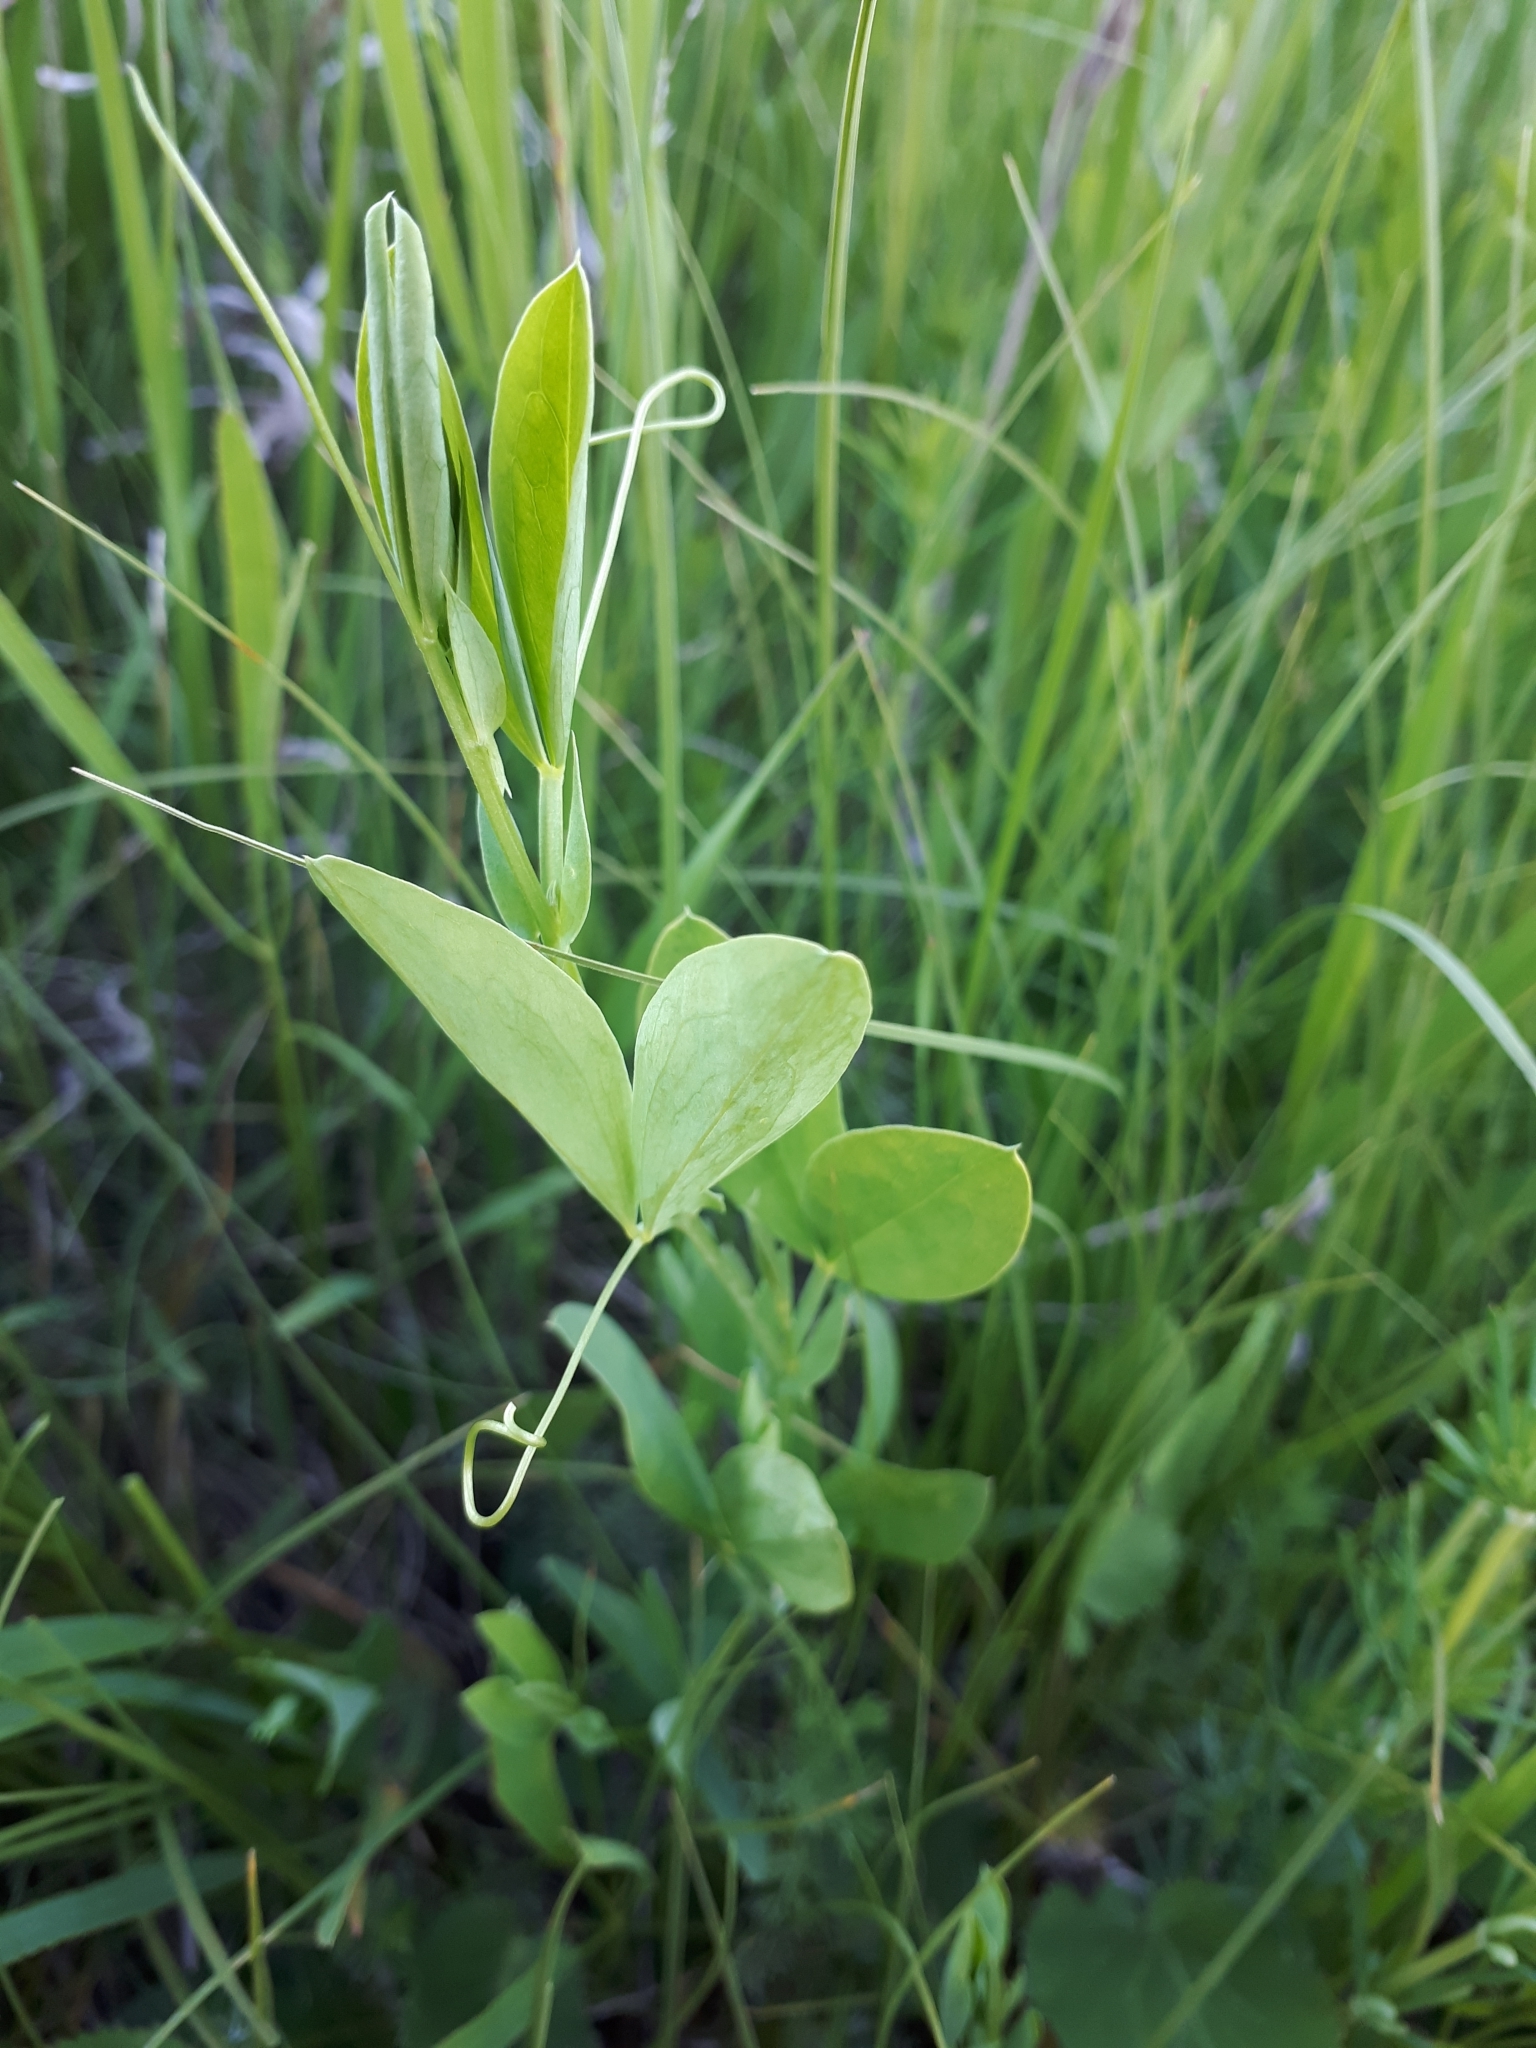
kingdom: Plantae
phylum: Tracheophyta
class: Magnoliopsida
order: Fabales
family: Fabaceae
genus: Lathyrus
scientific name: Lathyrus tuberosus
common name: Tuberous pea
